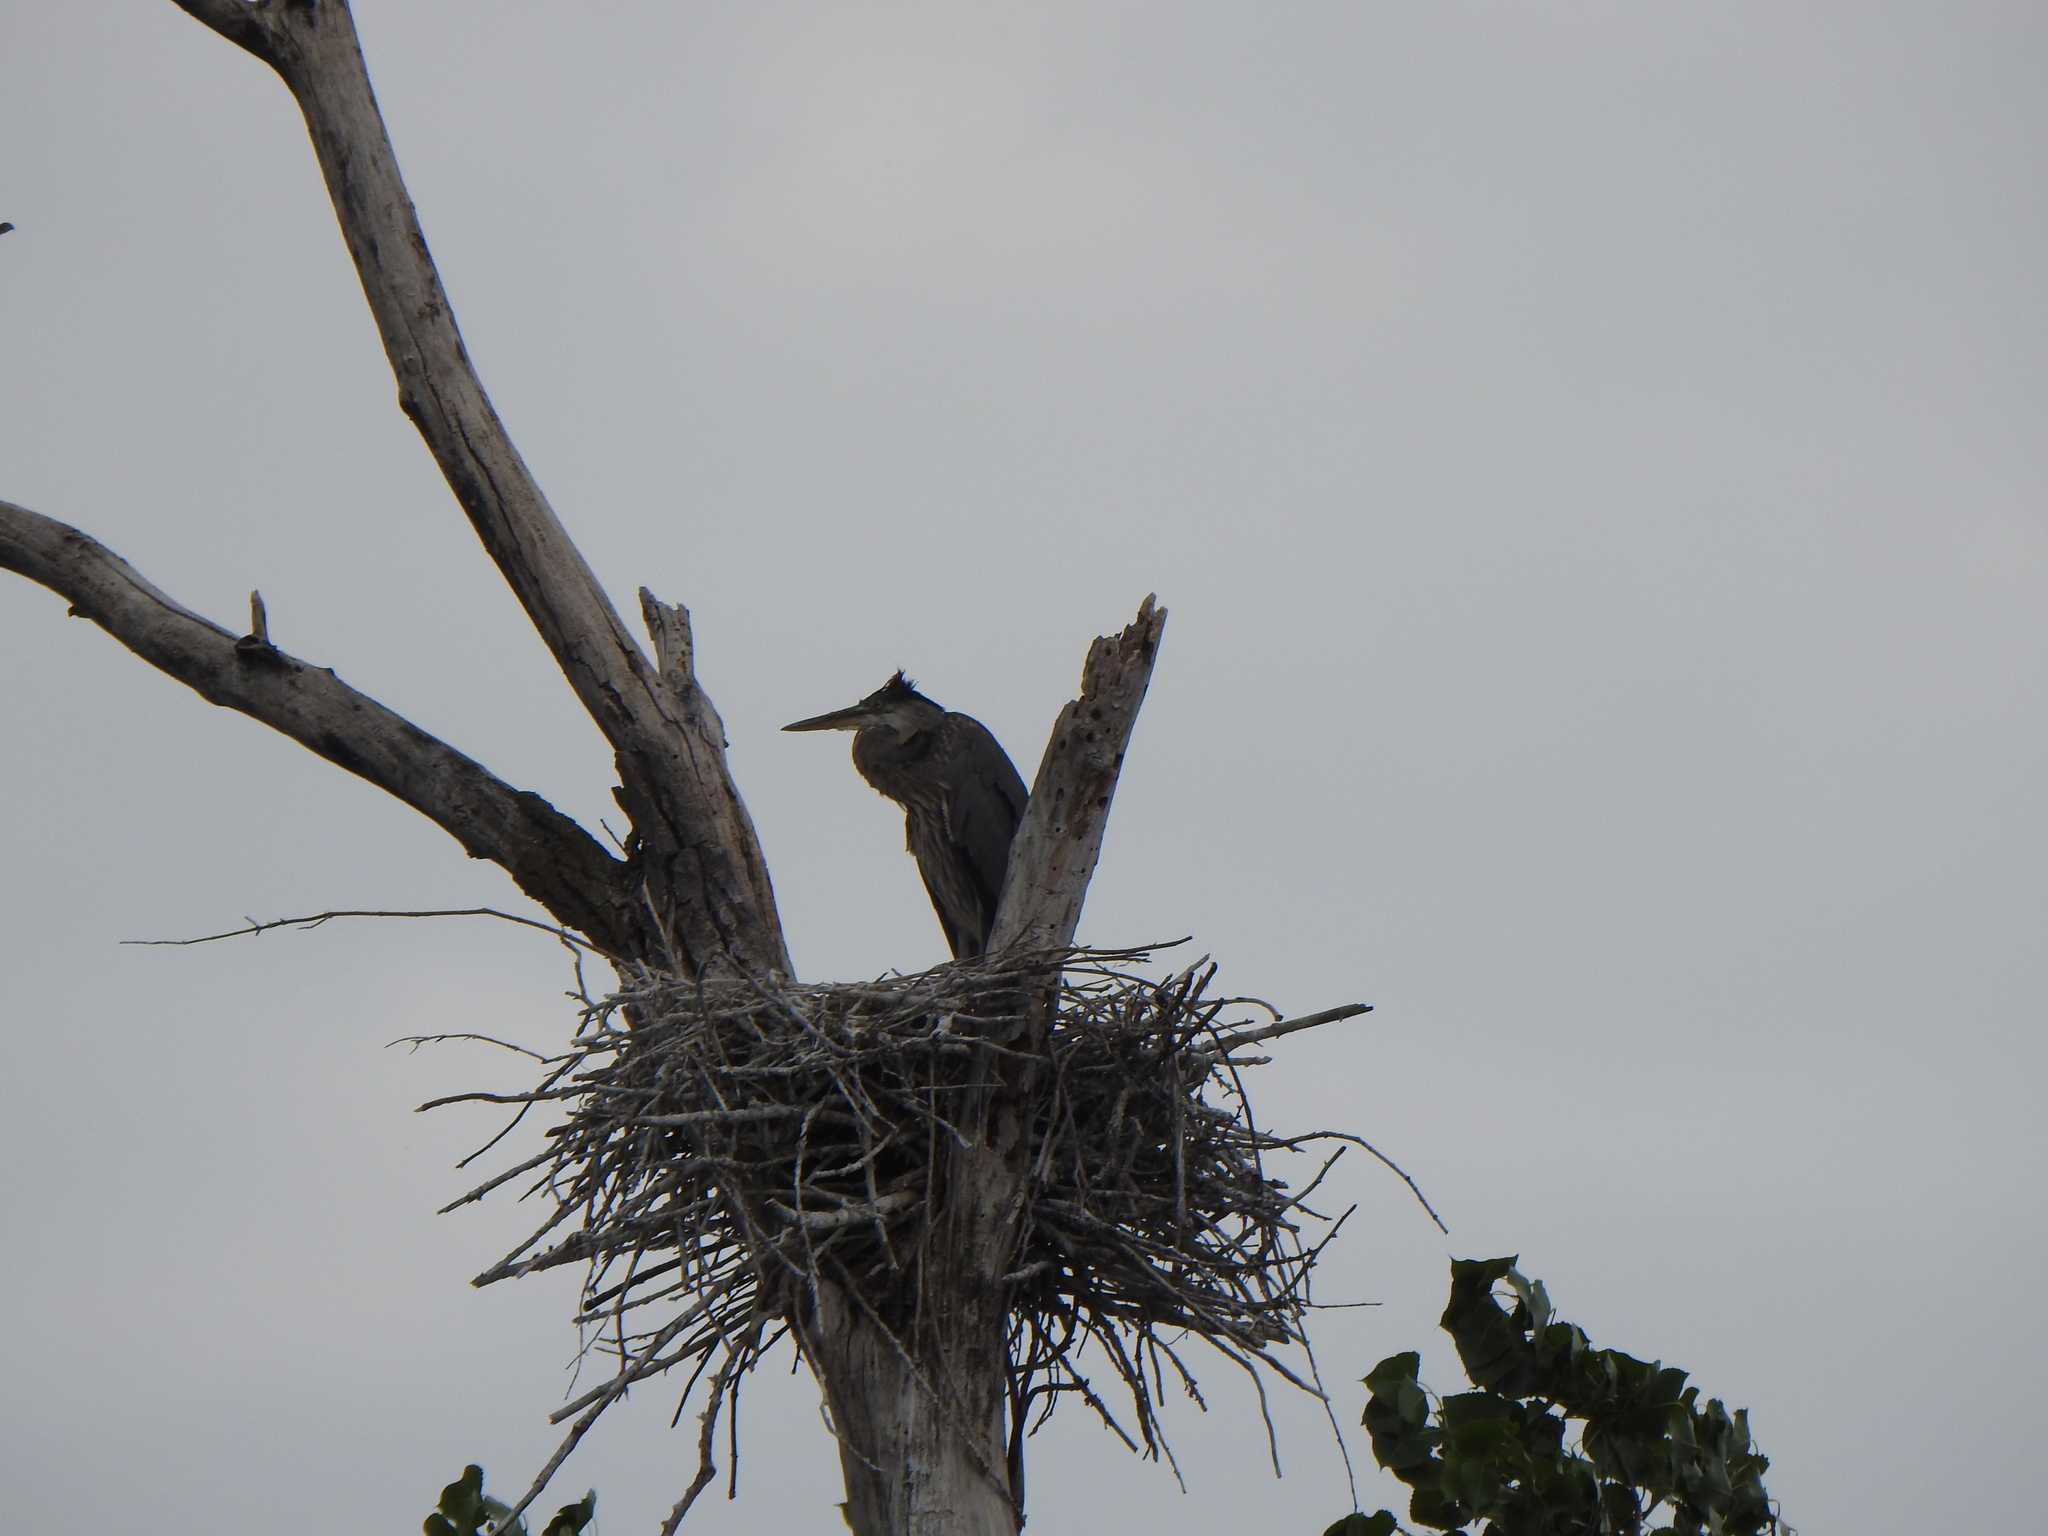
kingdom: Animalia
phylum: Chordata
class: Aves
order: Pelecaniformes
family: Ardeidae
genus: Ardea
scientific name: Ardea herodias
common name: Great blue heron
